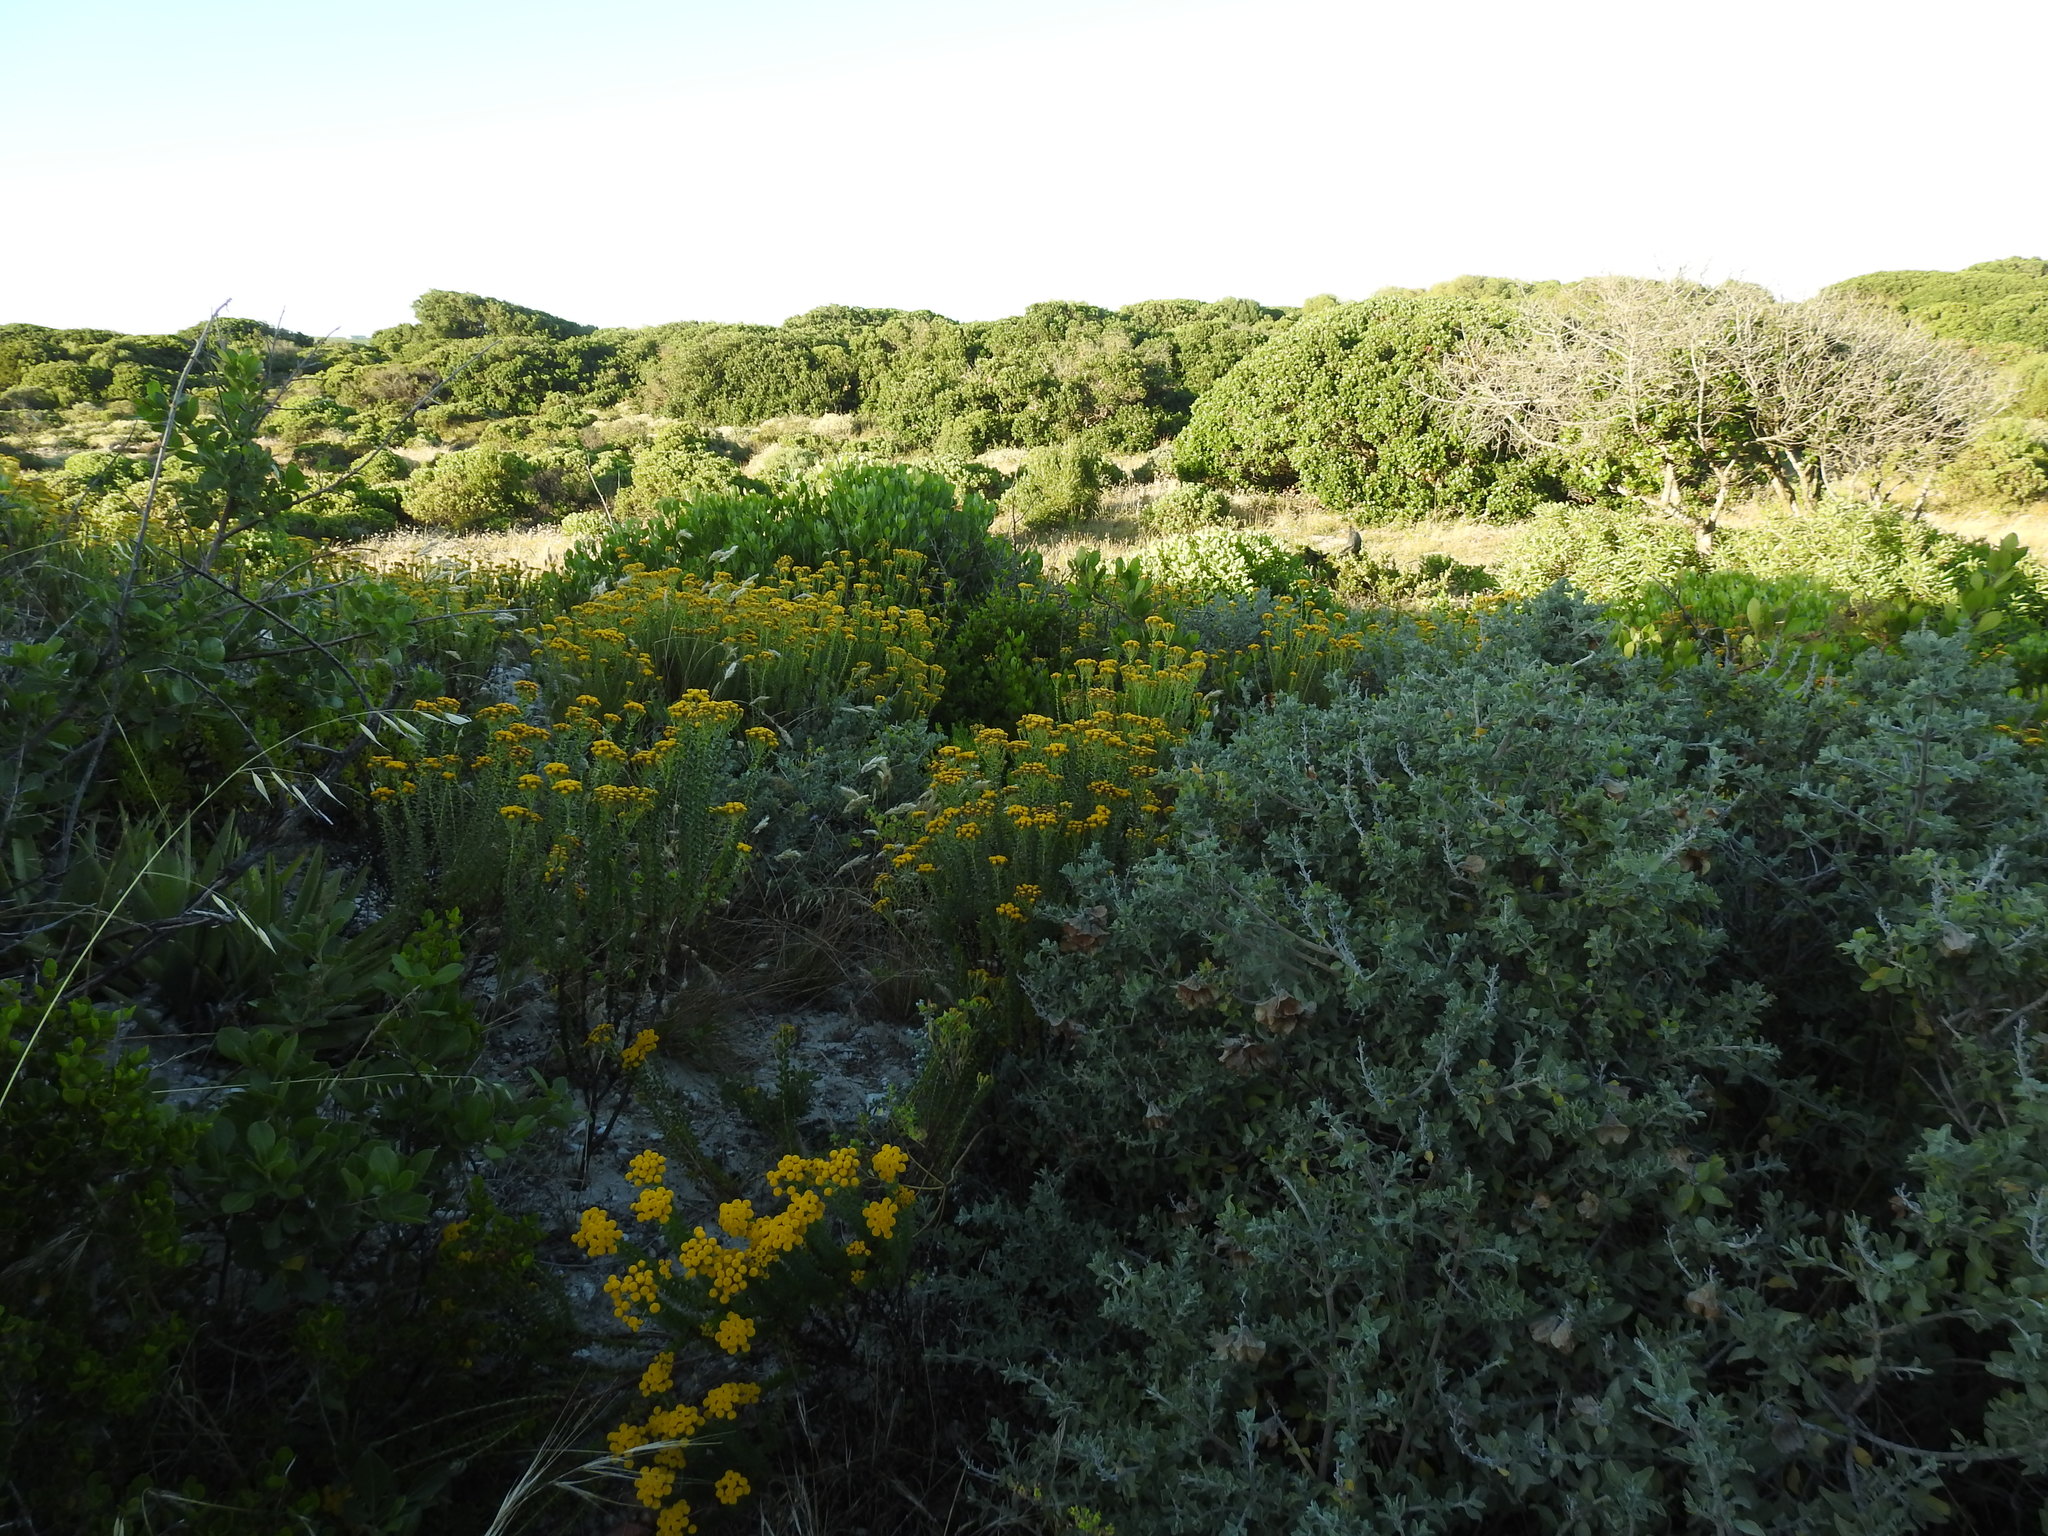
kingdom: Plantae
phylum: Tracheophyta
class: Magnoliopsida
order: Asterales
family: Asteraceae
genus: Athanasia
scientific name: Athanasia dentata
